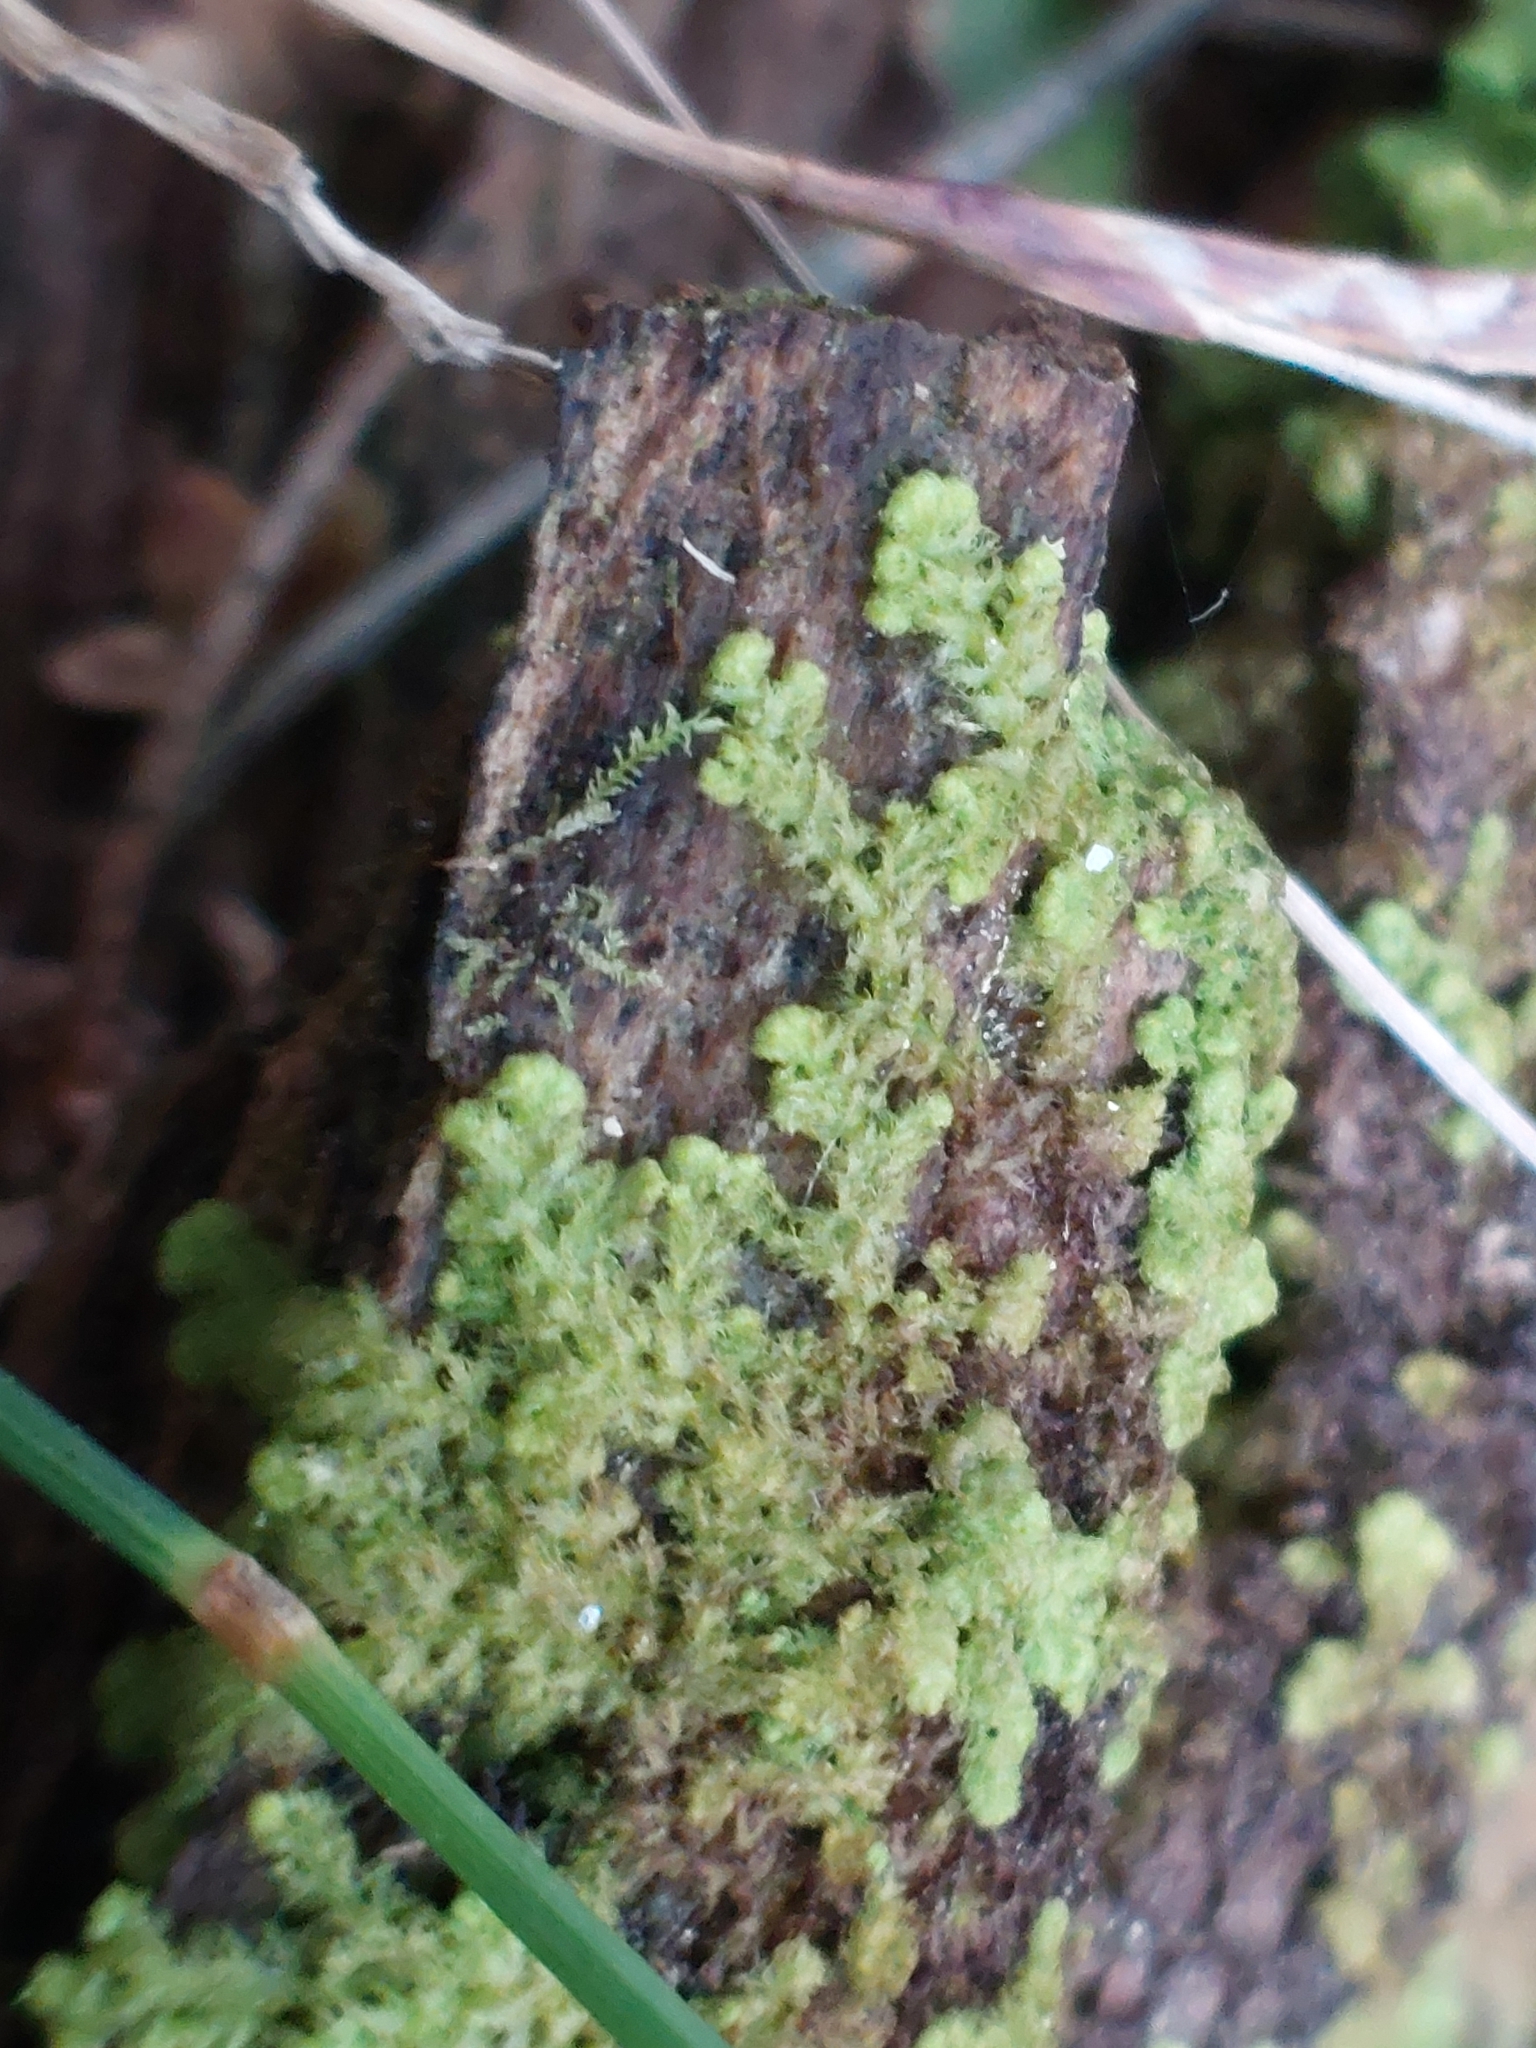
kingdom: Plantae
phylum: Marchantiophyta
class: Jungermanniopsida
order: Ptilidiales
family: Ptilidiaceae
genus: Ptilidium
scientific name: Ptilidium pulcherrimum
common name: Tree fringewort
